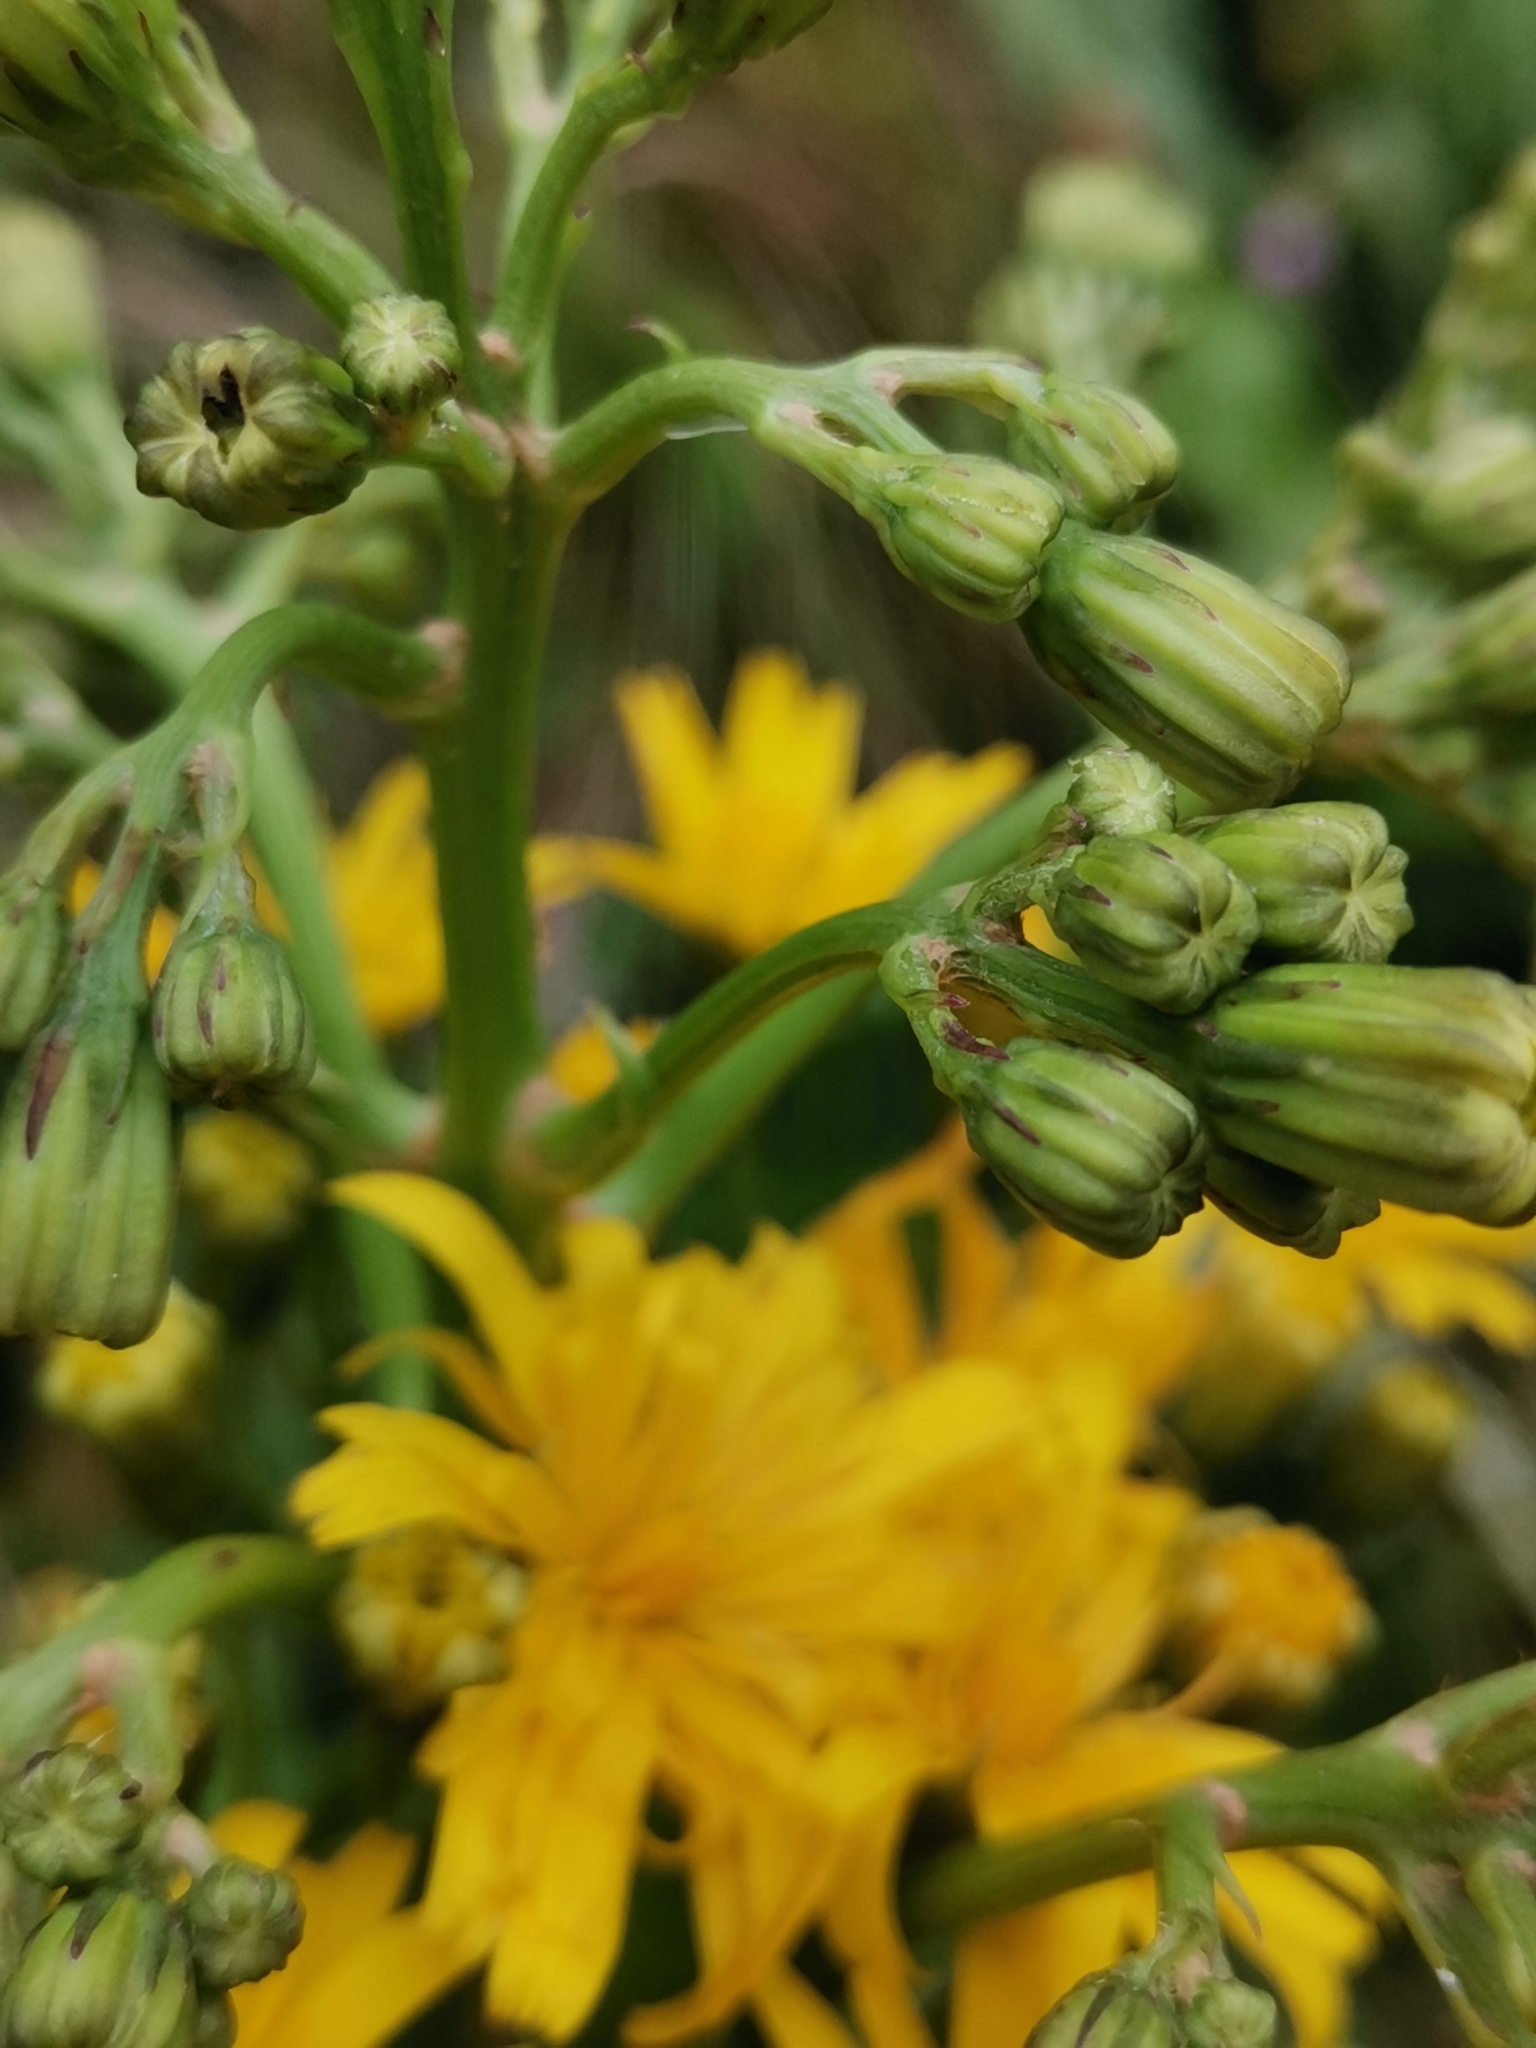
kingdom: Plantae
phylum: Tracheophyta
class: Magnoliopsida
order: Asterales
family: Asteraceae
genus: Leontodon
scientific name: Leontodon rigens
